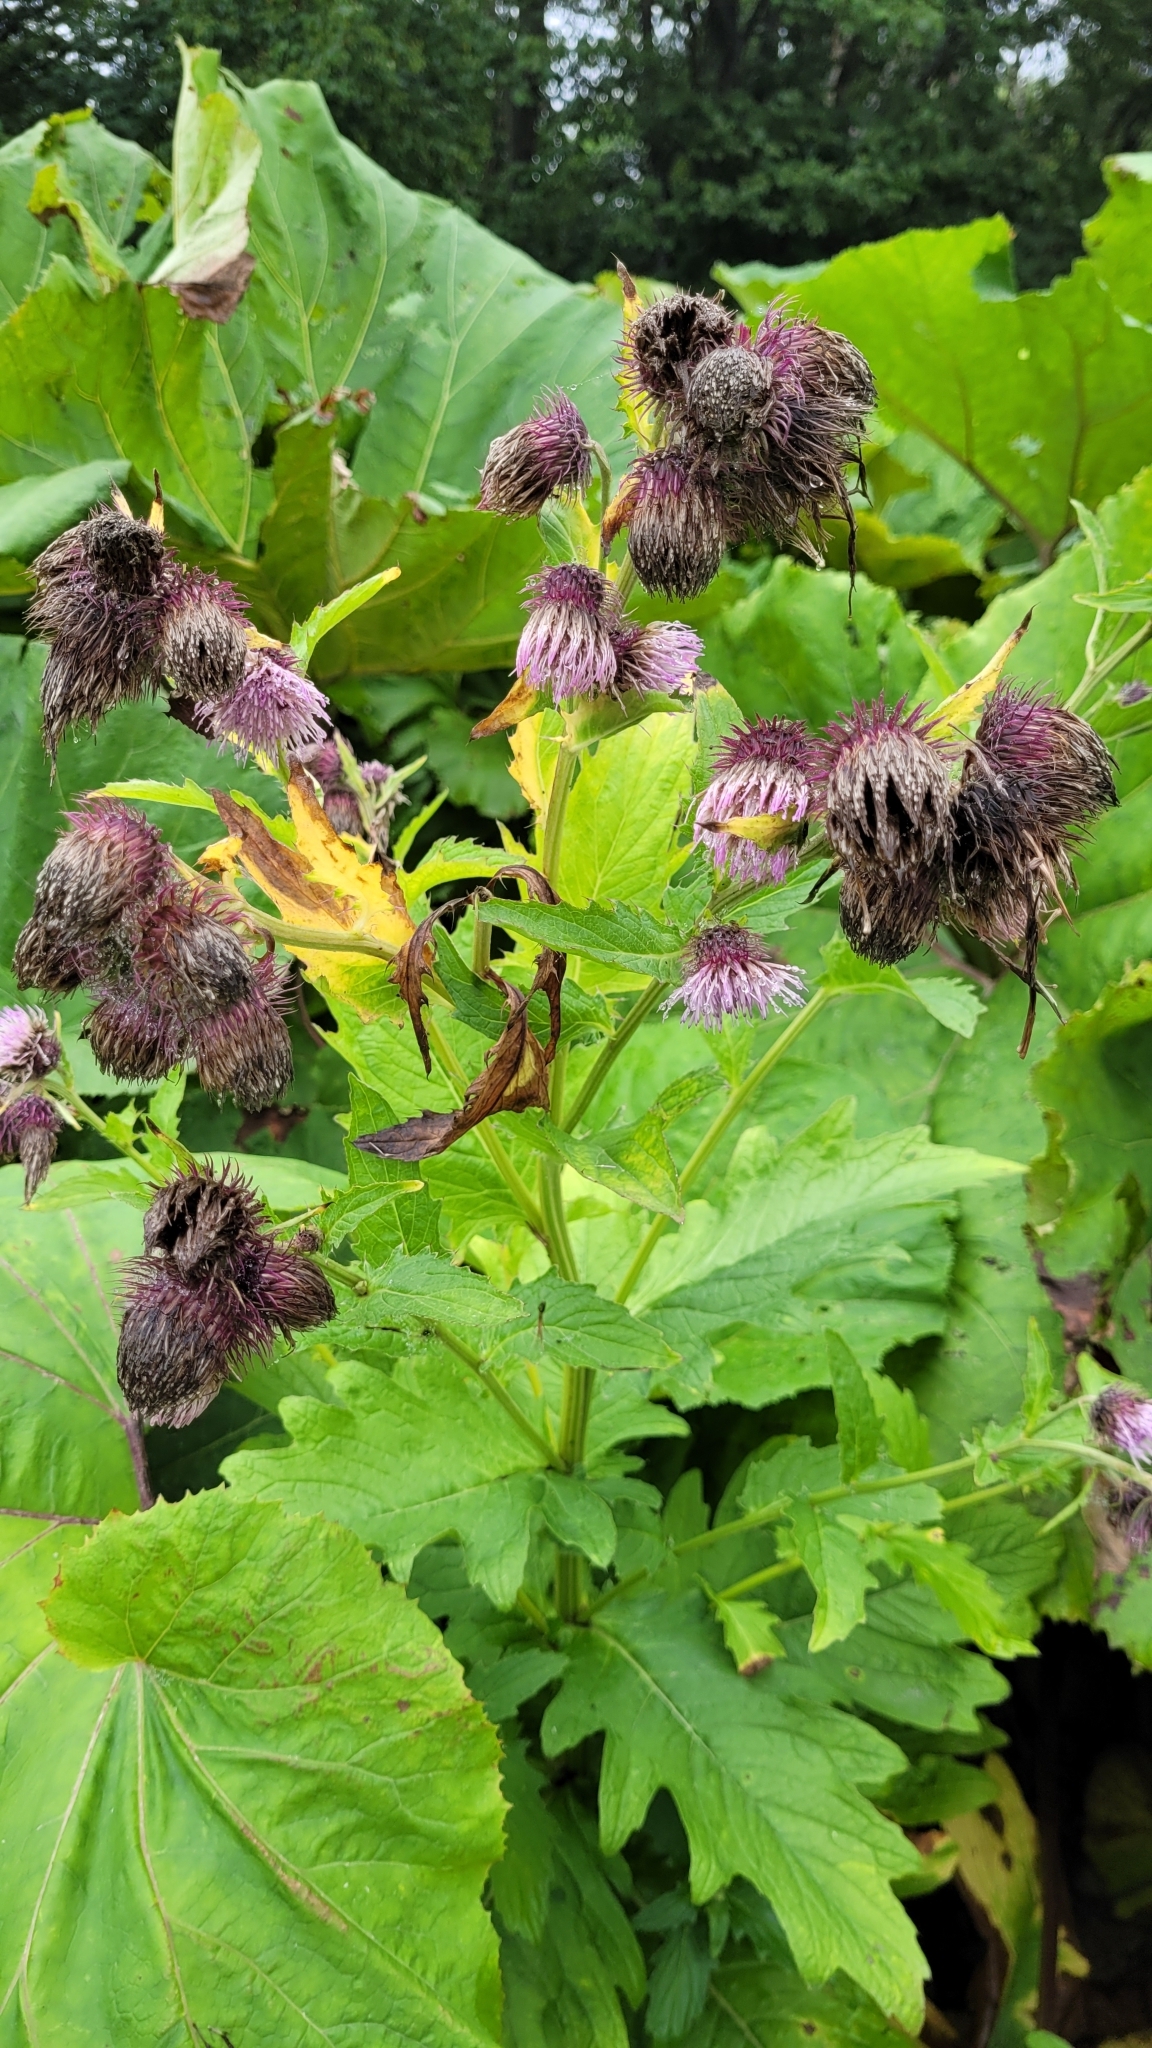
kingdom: Plantae
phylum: Tracheophyta
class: Magnoliopsida
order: Asterales
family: Asteraceae
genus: Cirsium
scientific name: Cirsium kamtschaticum
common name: Kamchatka thistle
